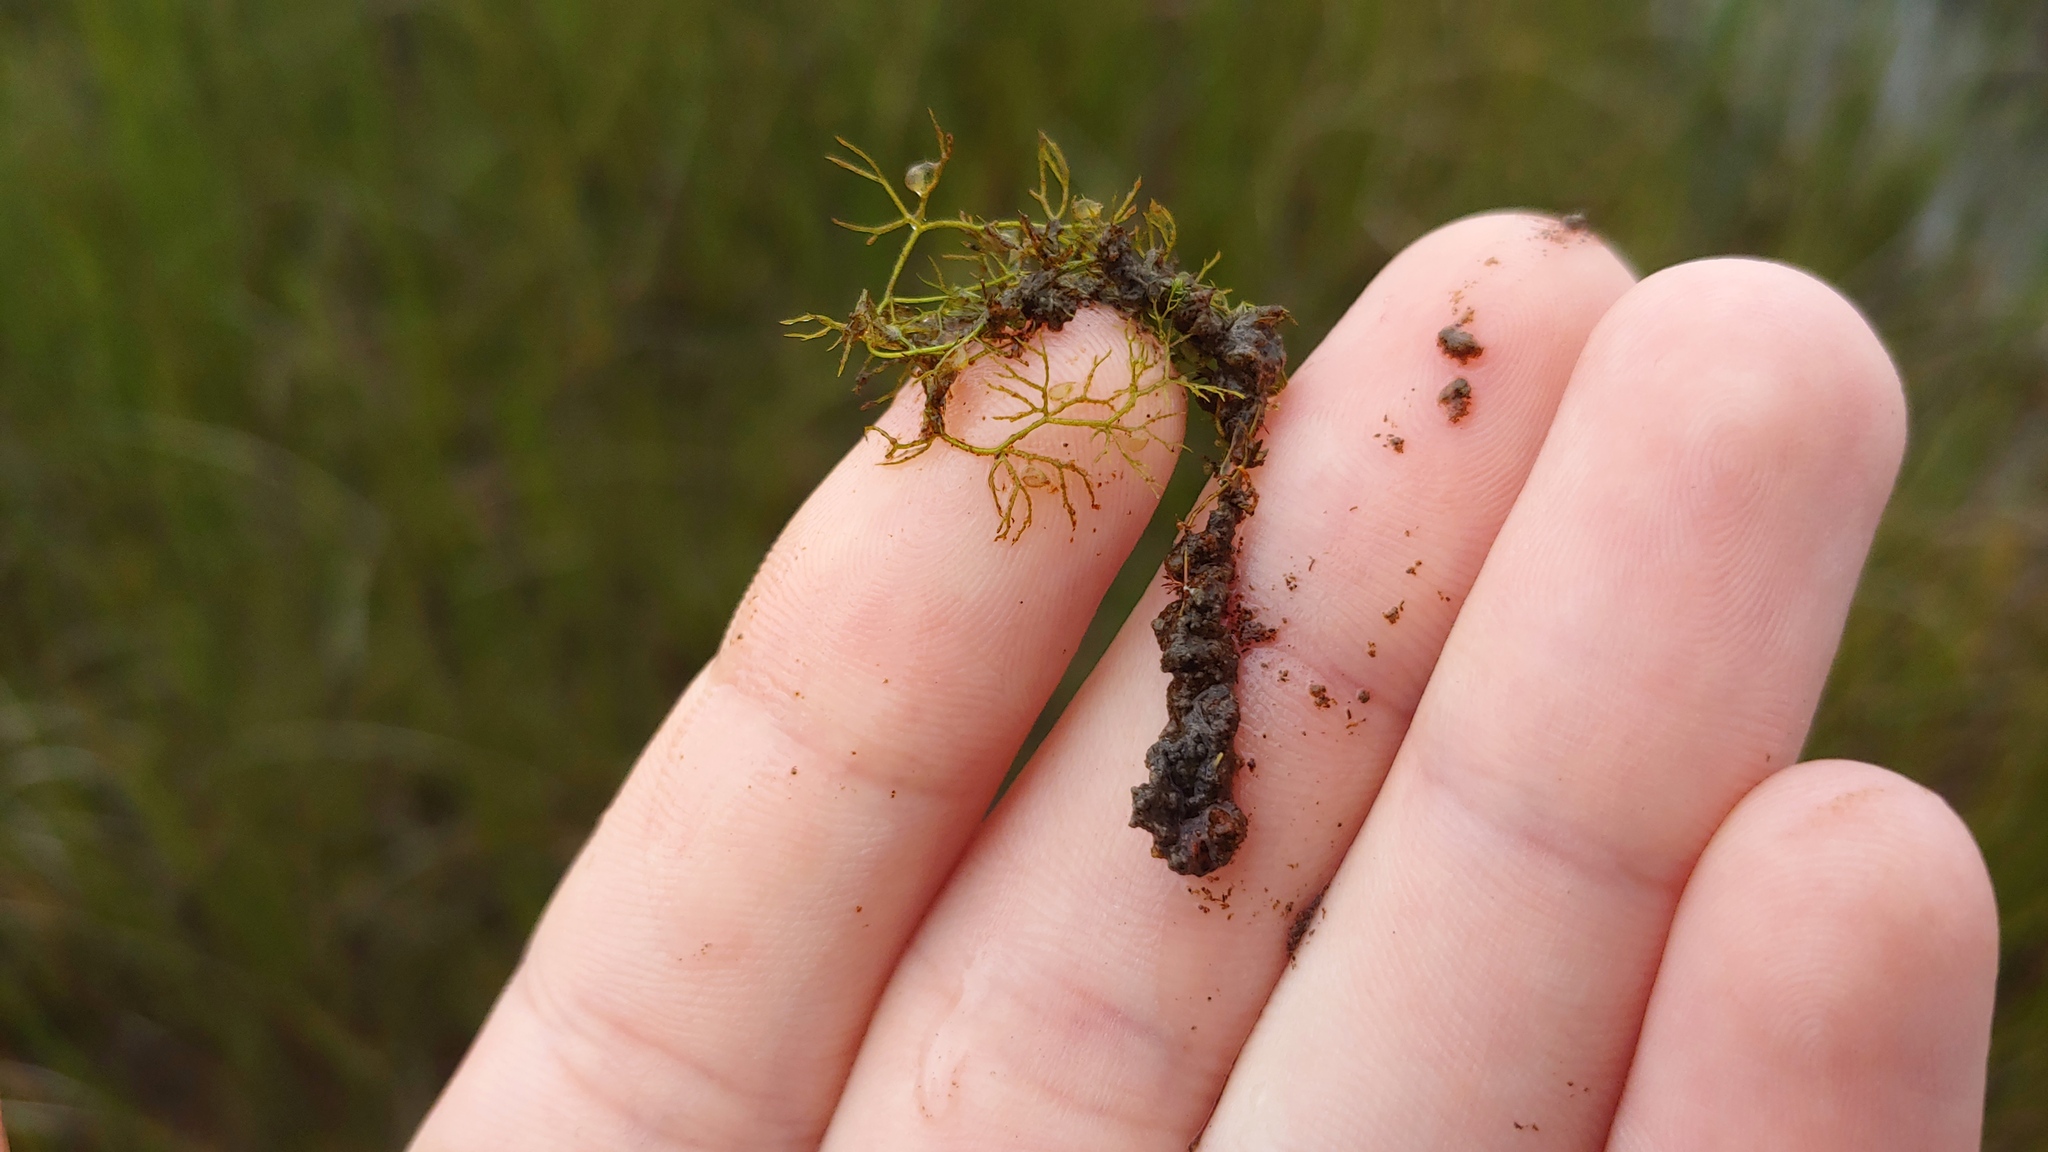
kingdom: Plantae
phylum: Tracheophyta
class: Magnoliopsida
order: Lamiales
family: Lentibulariaceae
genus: Utricularia
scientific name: Utricularia minor
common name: Lesser bladderwort
